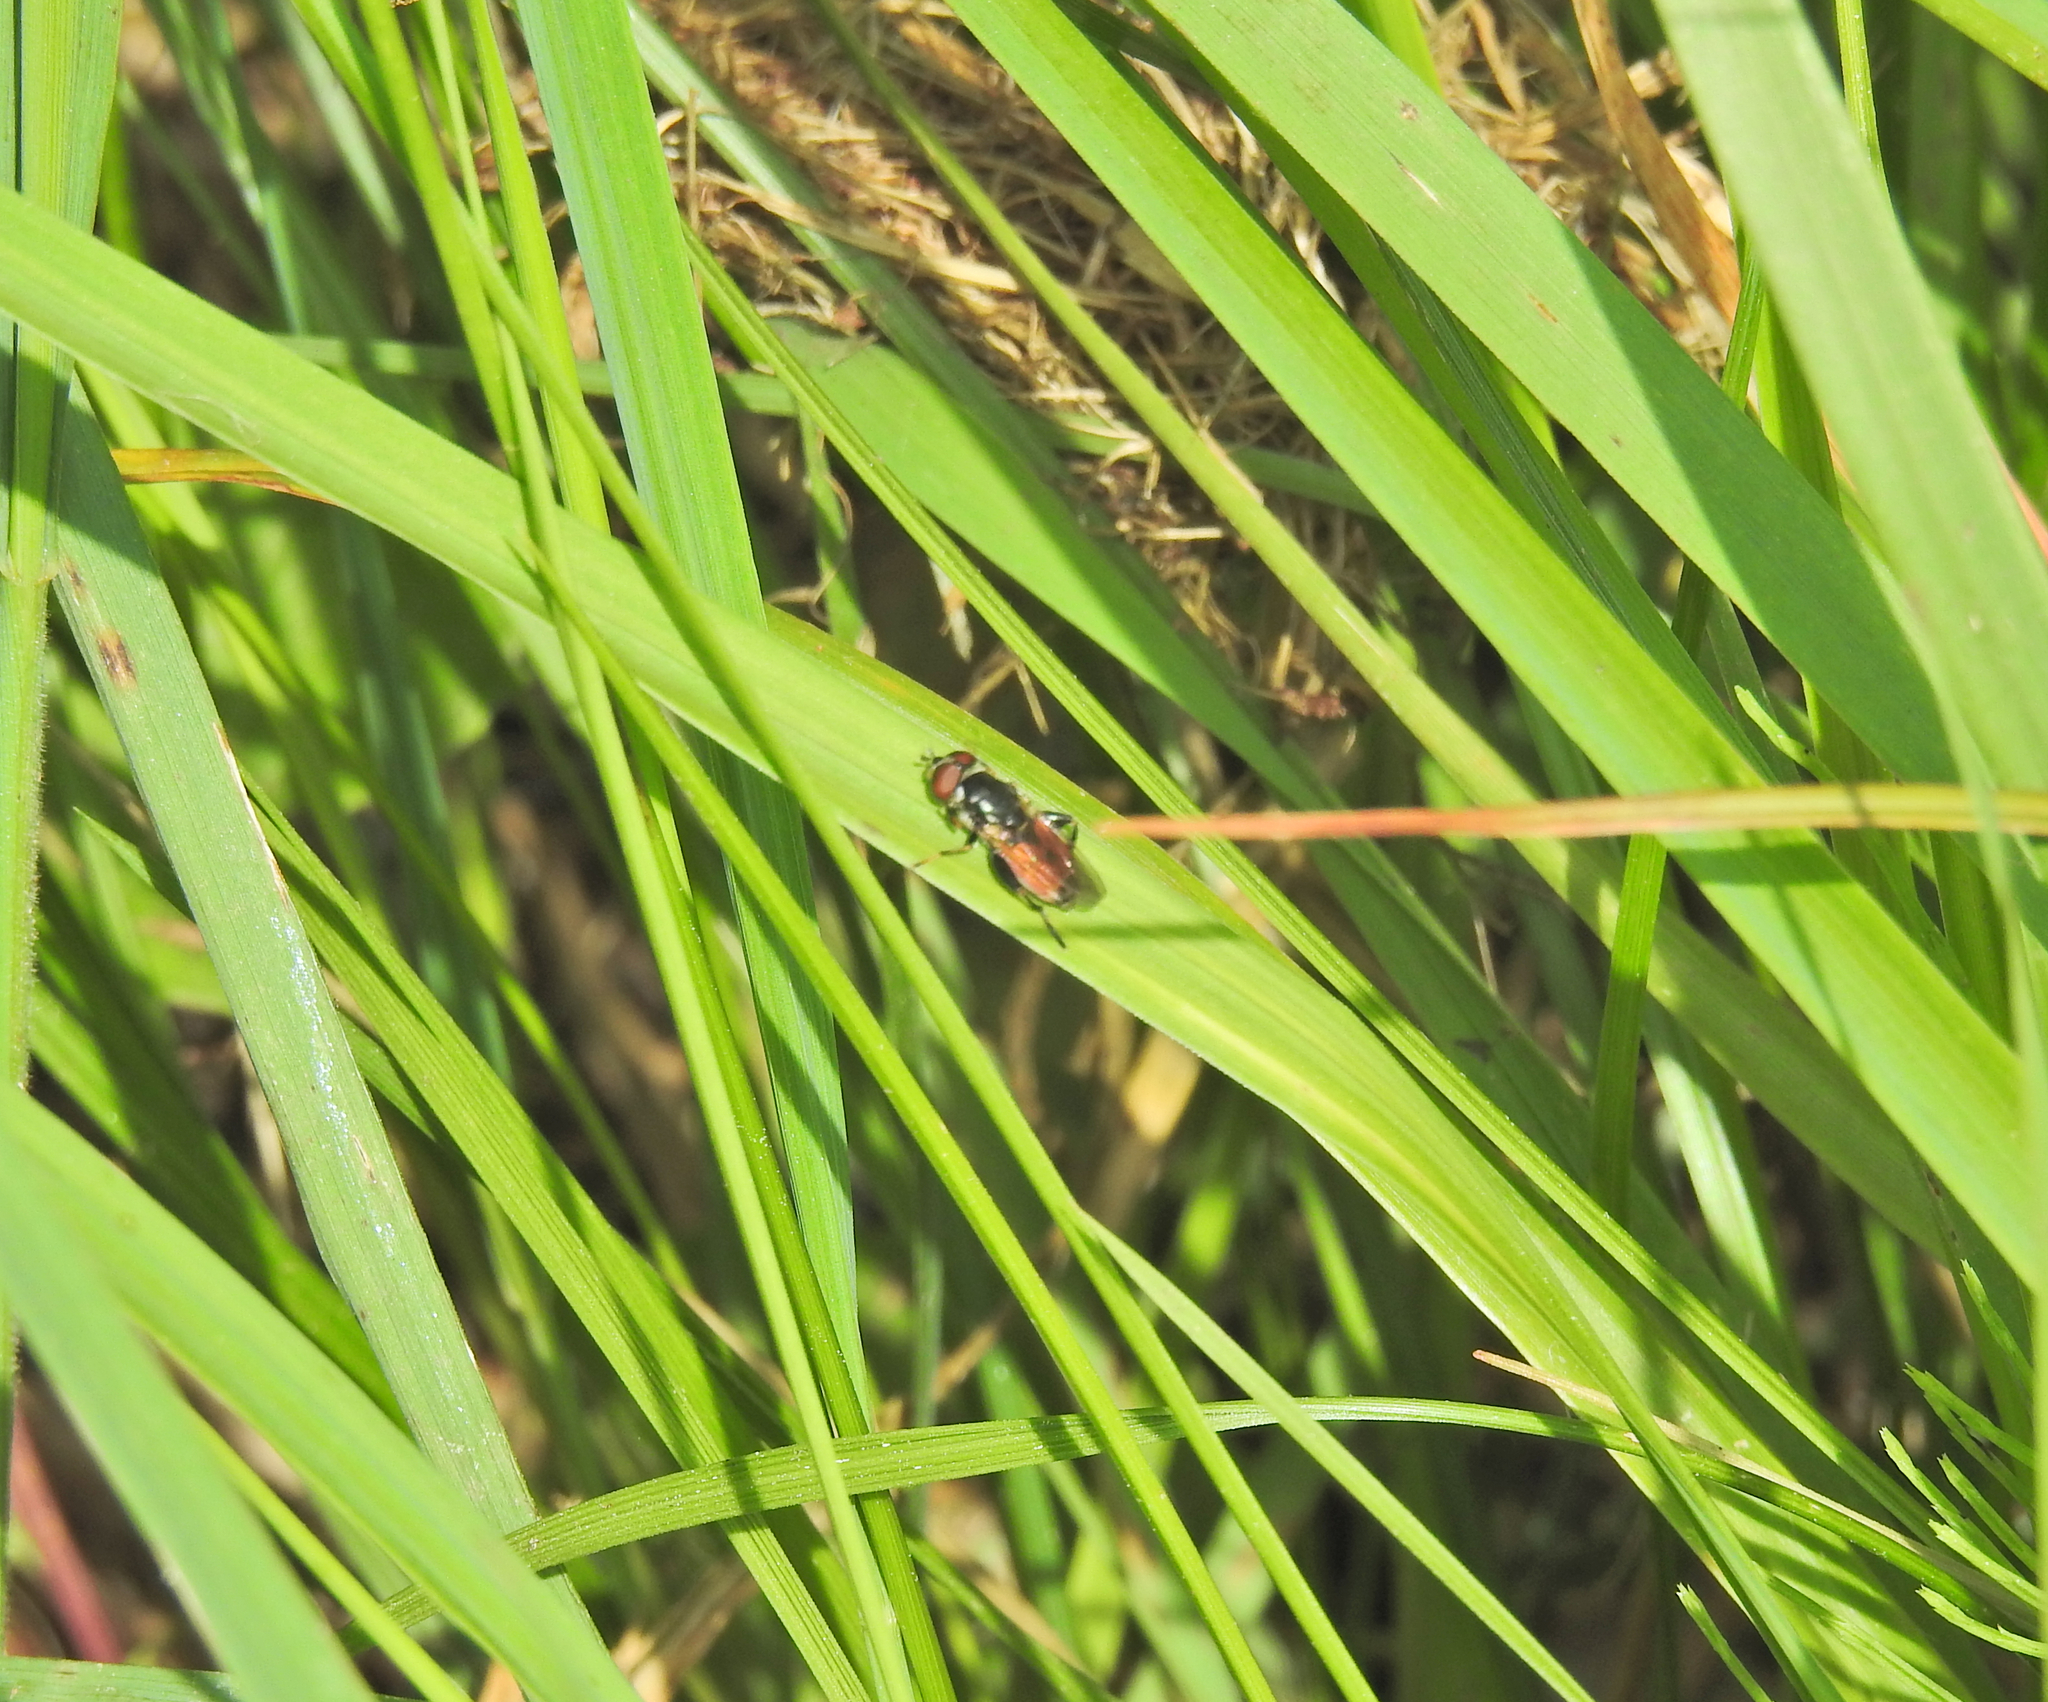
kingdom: Animalia
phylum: Arthropoda
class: Insecta
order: Diptera
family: Syrphidae
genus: Tropidia
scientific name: Tropidia scita
